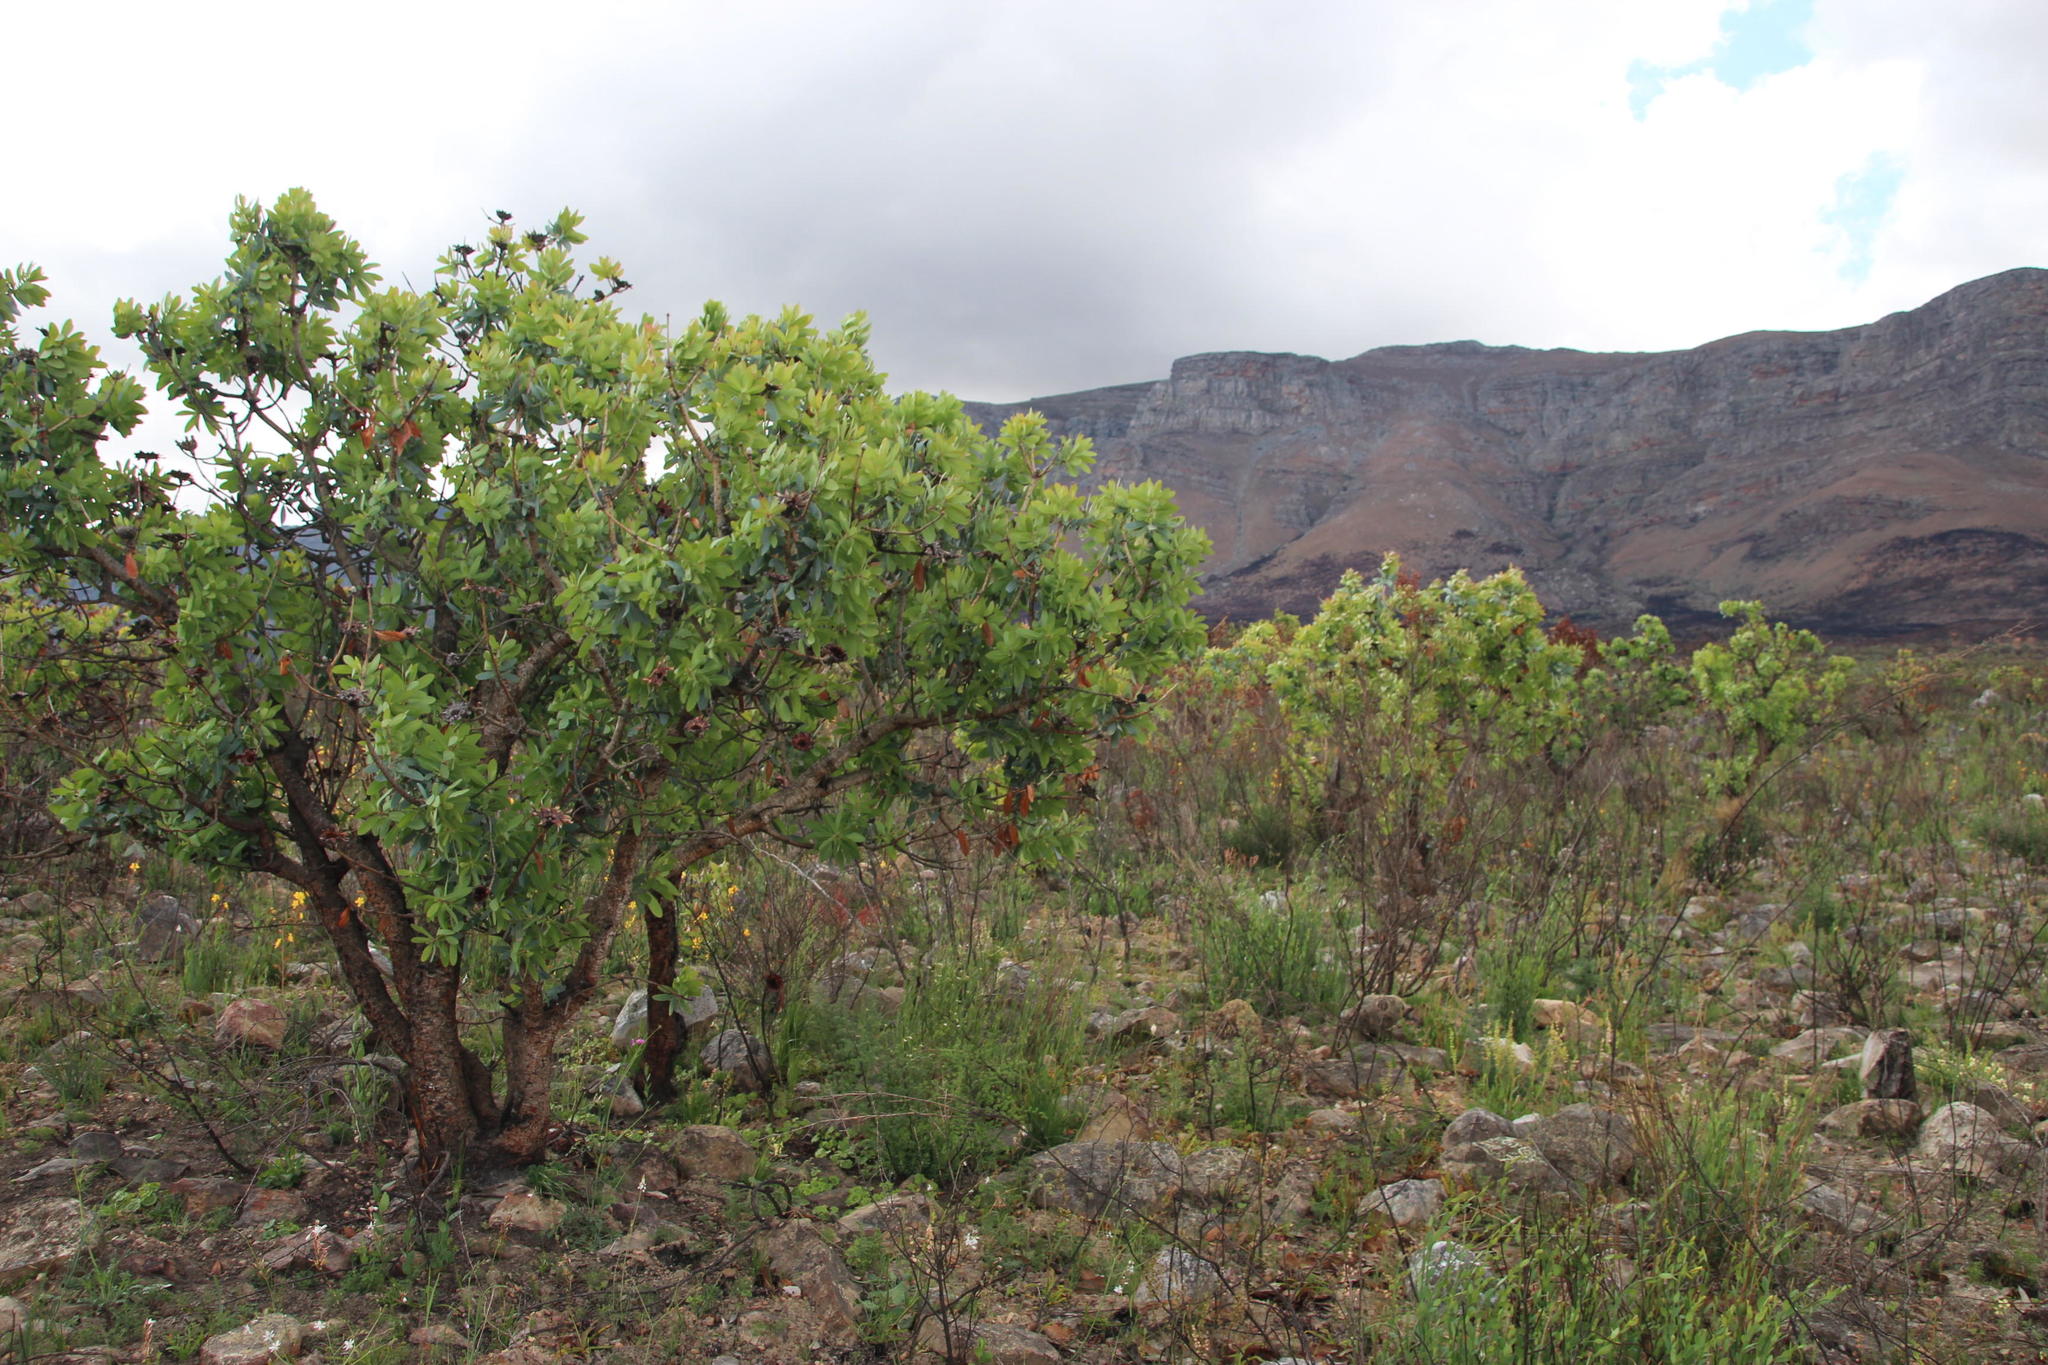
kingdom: Plantae
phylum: Tracheophyta
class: Magnoliopsida
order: Proteales
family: Proteaceae
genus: Protea
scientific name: Protea nitida
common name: Tree protea
